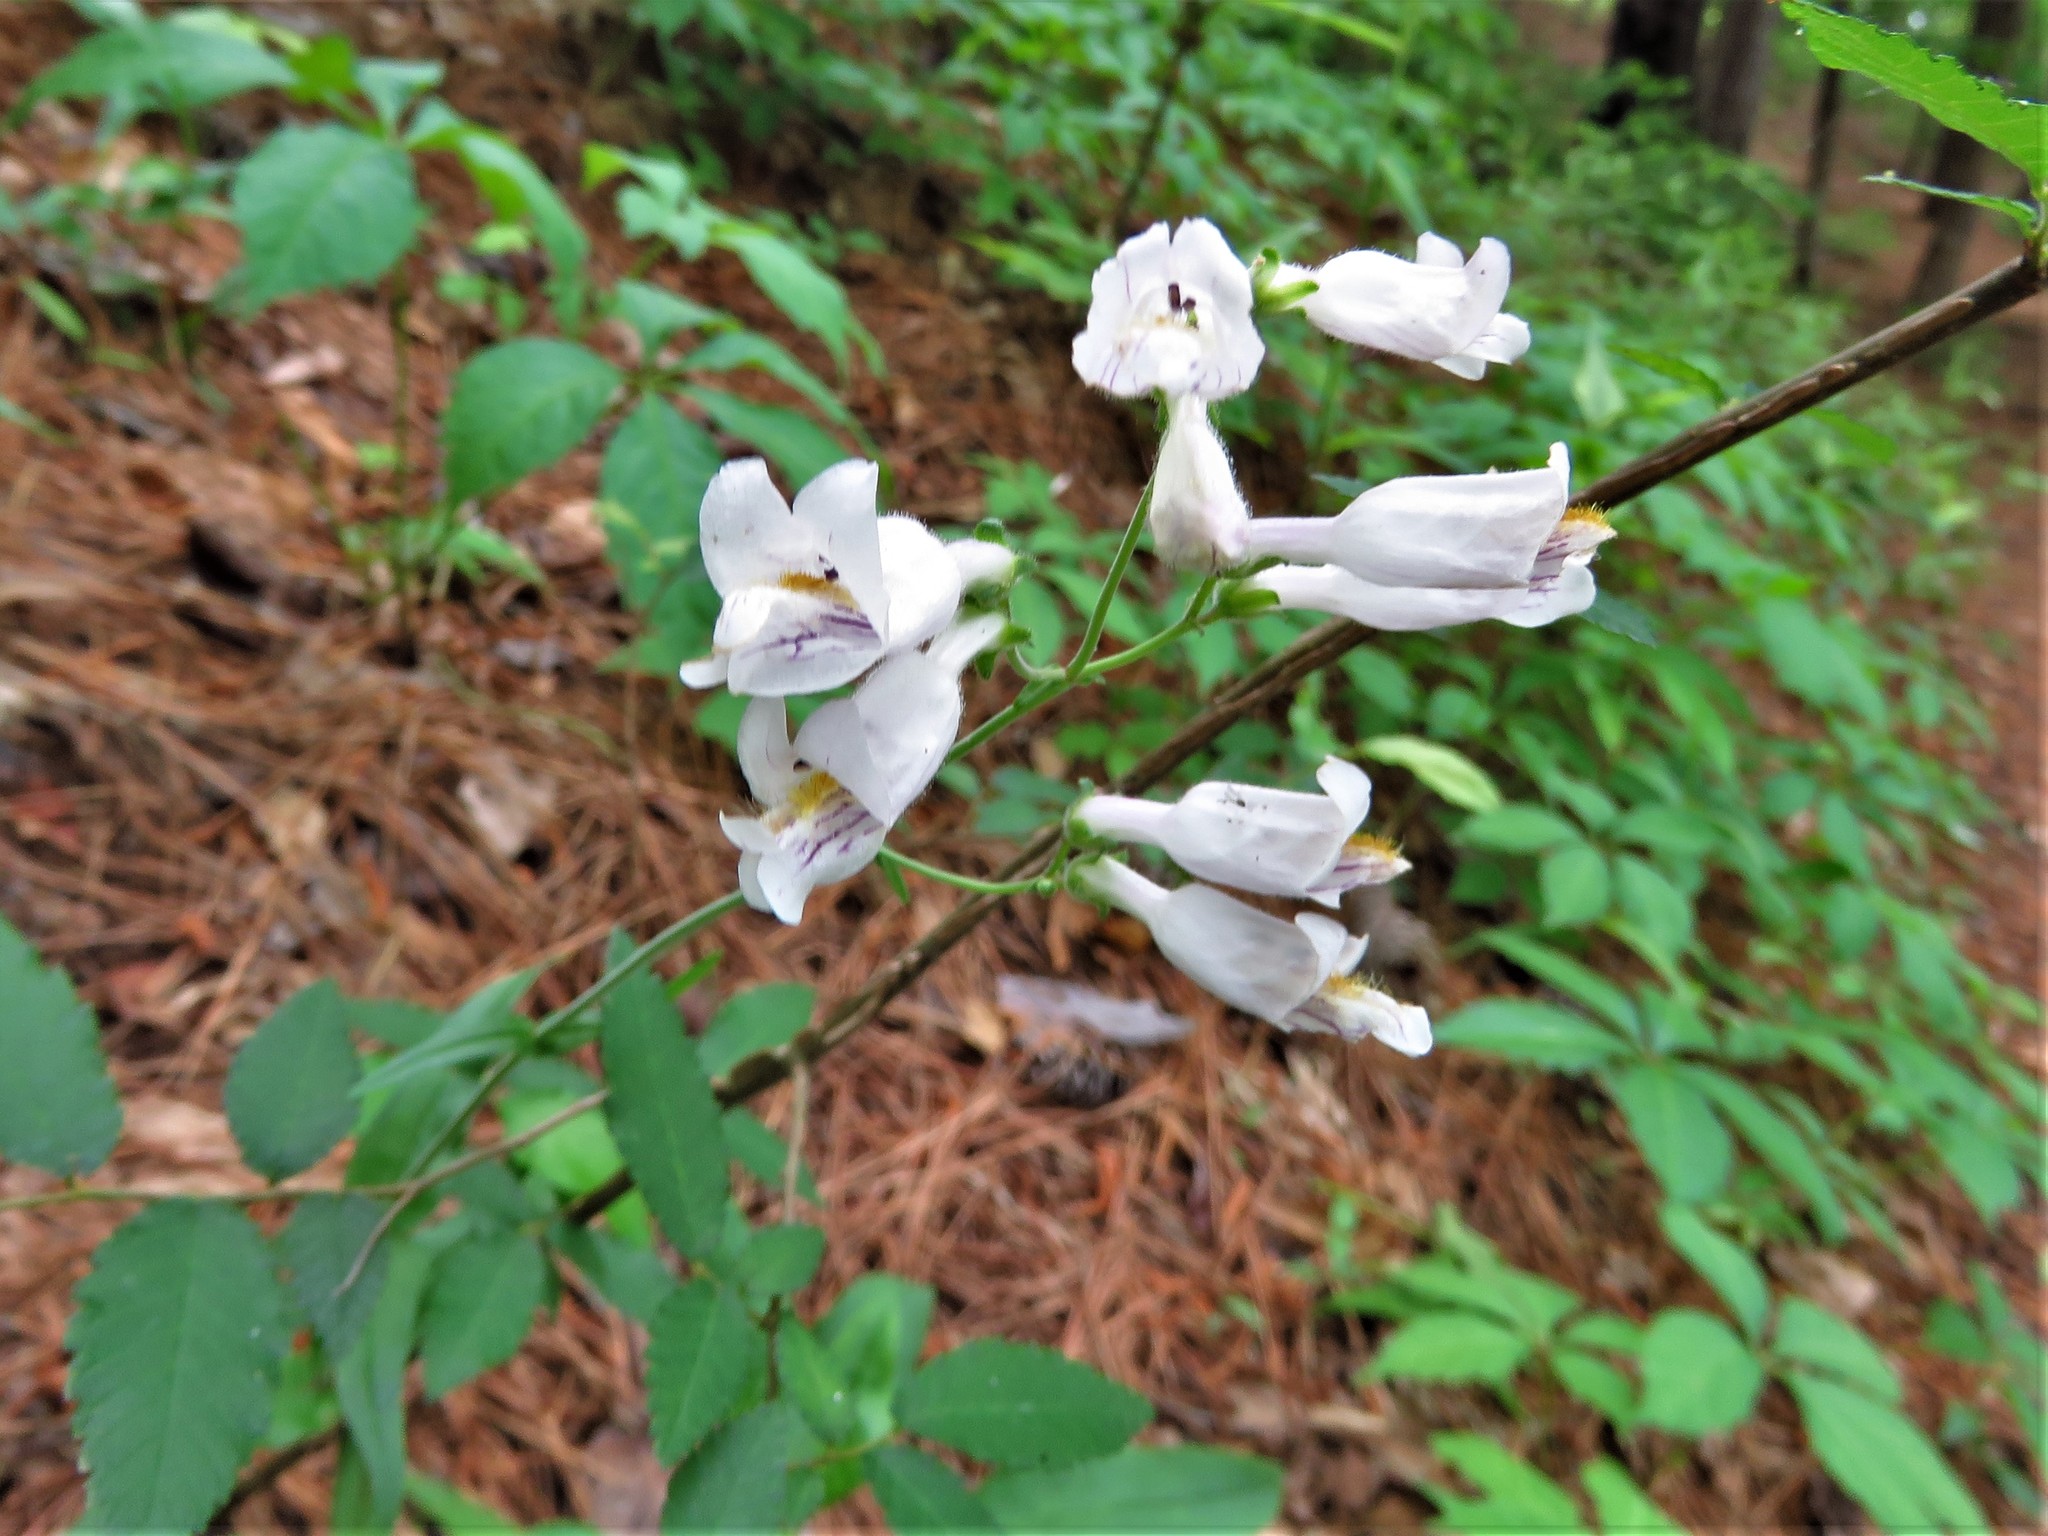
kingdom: Plantae
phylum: Tracheophyta
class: Magnoliopsida
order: Lamiales
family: Plantaginaceae
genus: Penstemon
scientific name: Penstemon laxiflorus
